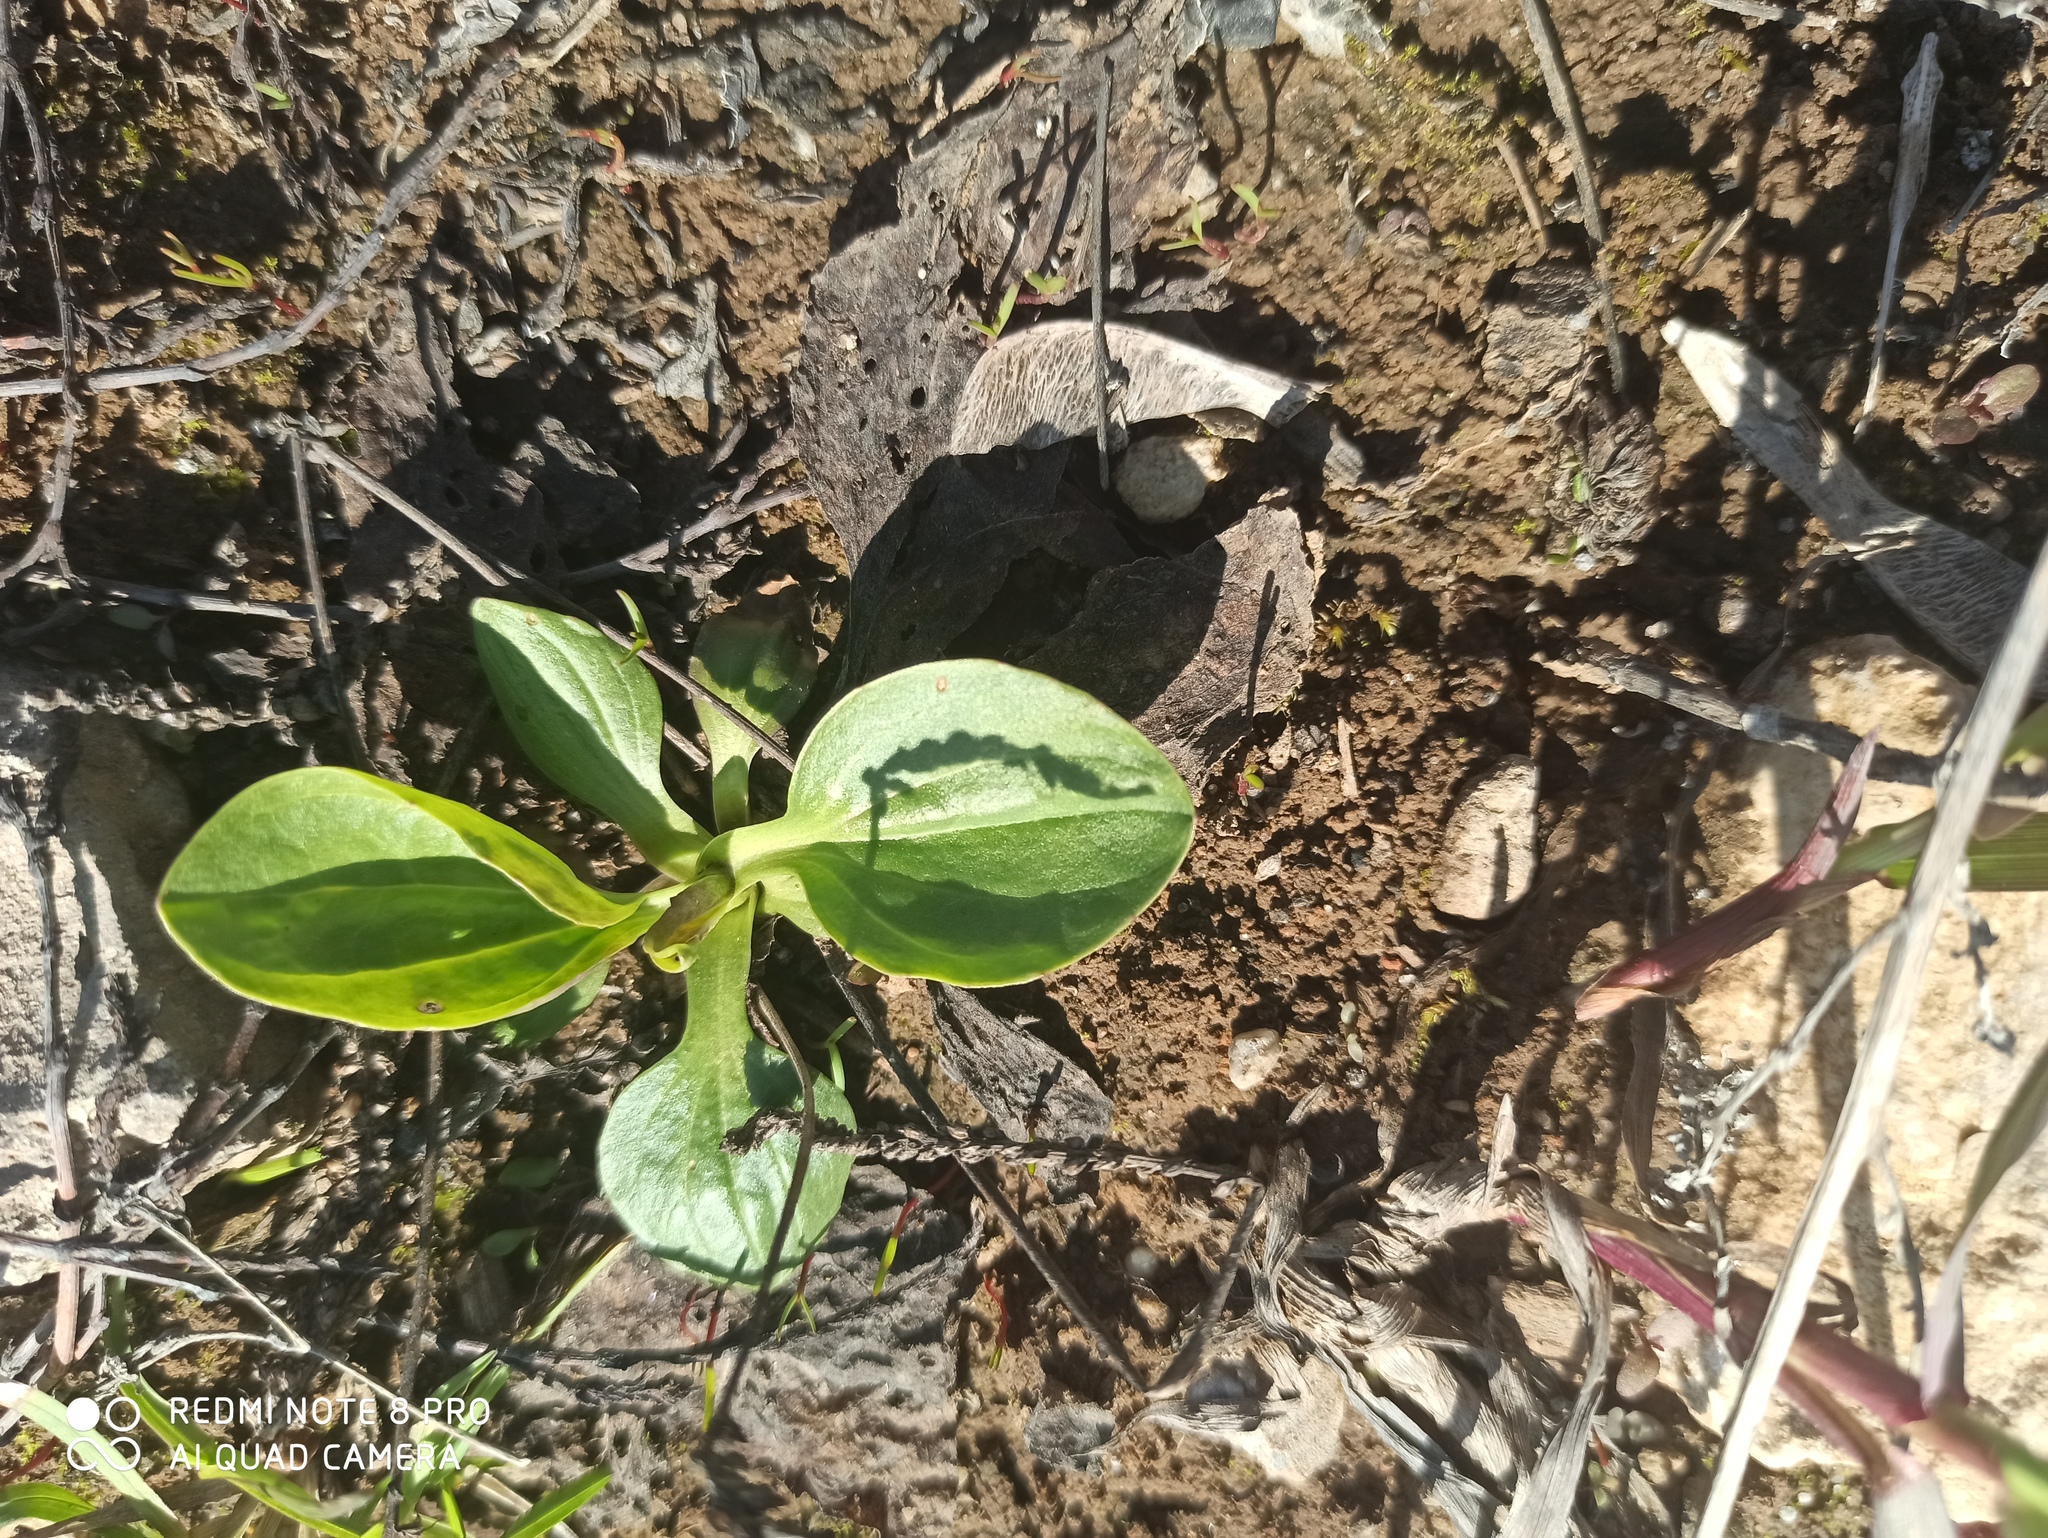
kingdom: Plantae
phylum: Tracheophyta
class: Magnoliopsida
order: Lamiales
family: Plantaginaceae
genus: Plantago
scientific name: Plantago major
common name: Common plantain
